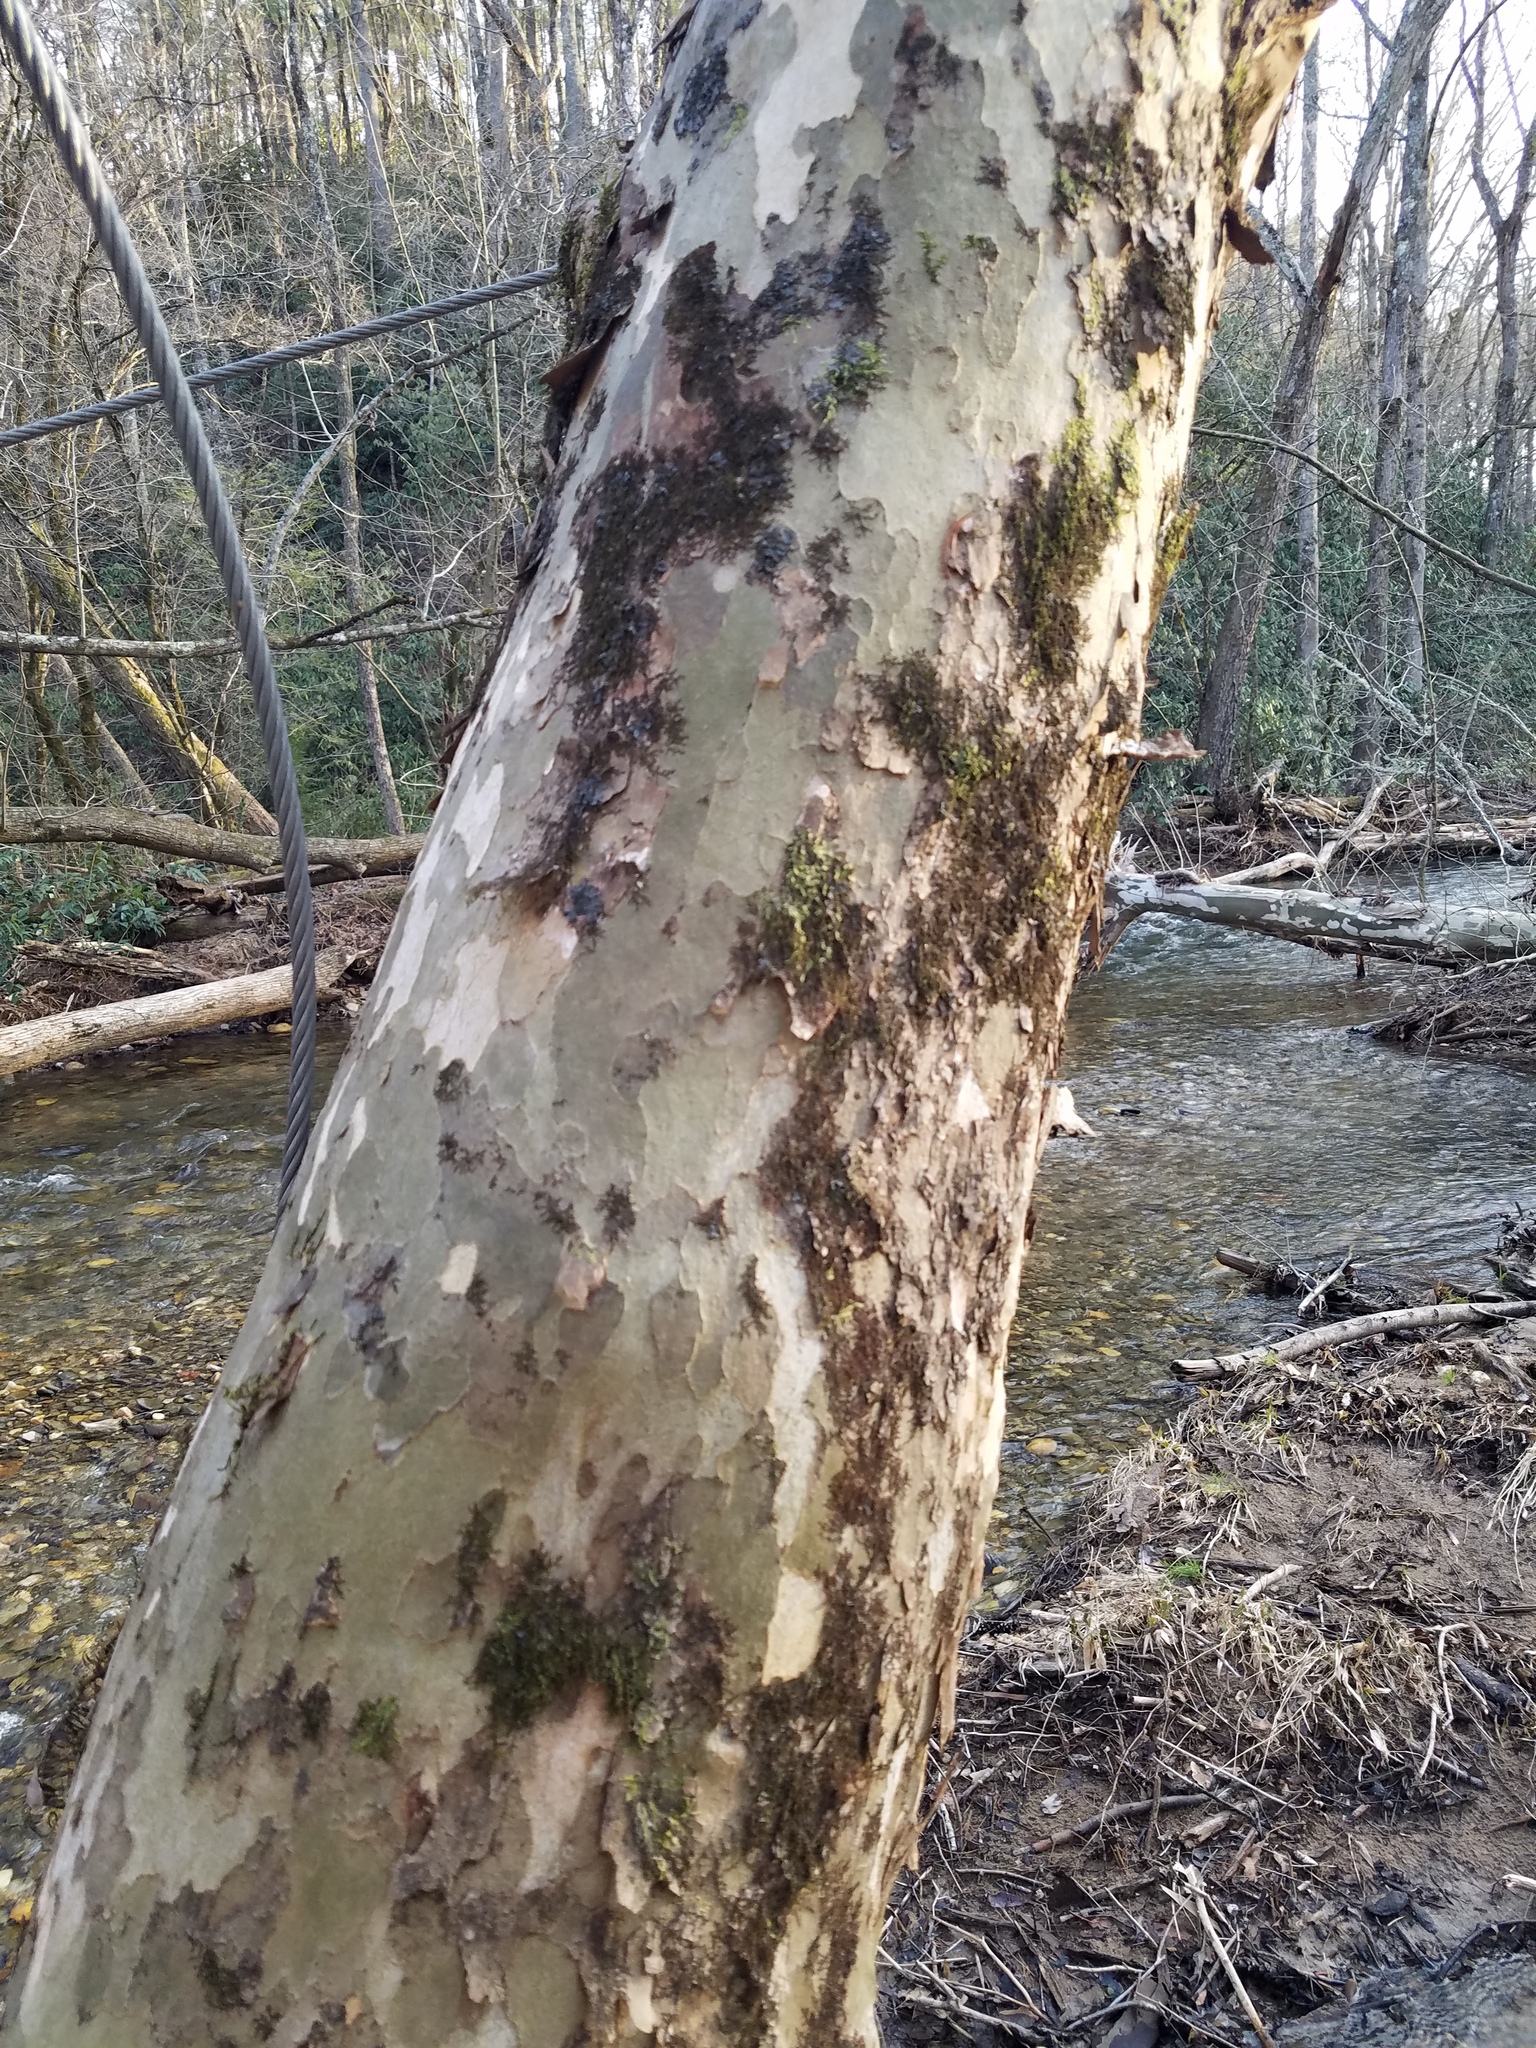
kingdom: Plantae
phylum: Tracheophyta
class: Magnoliopsida
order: Proteales
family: Platanaceae
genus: Platanus
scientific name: Platanus occidentalis
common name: American sycamore
